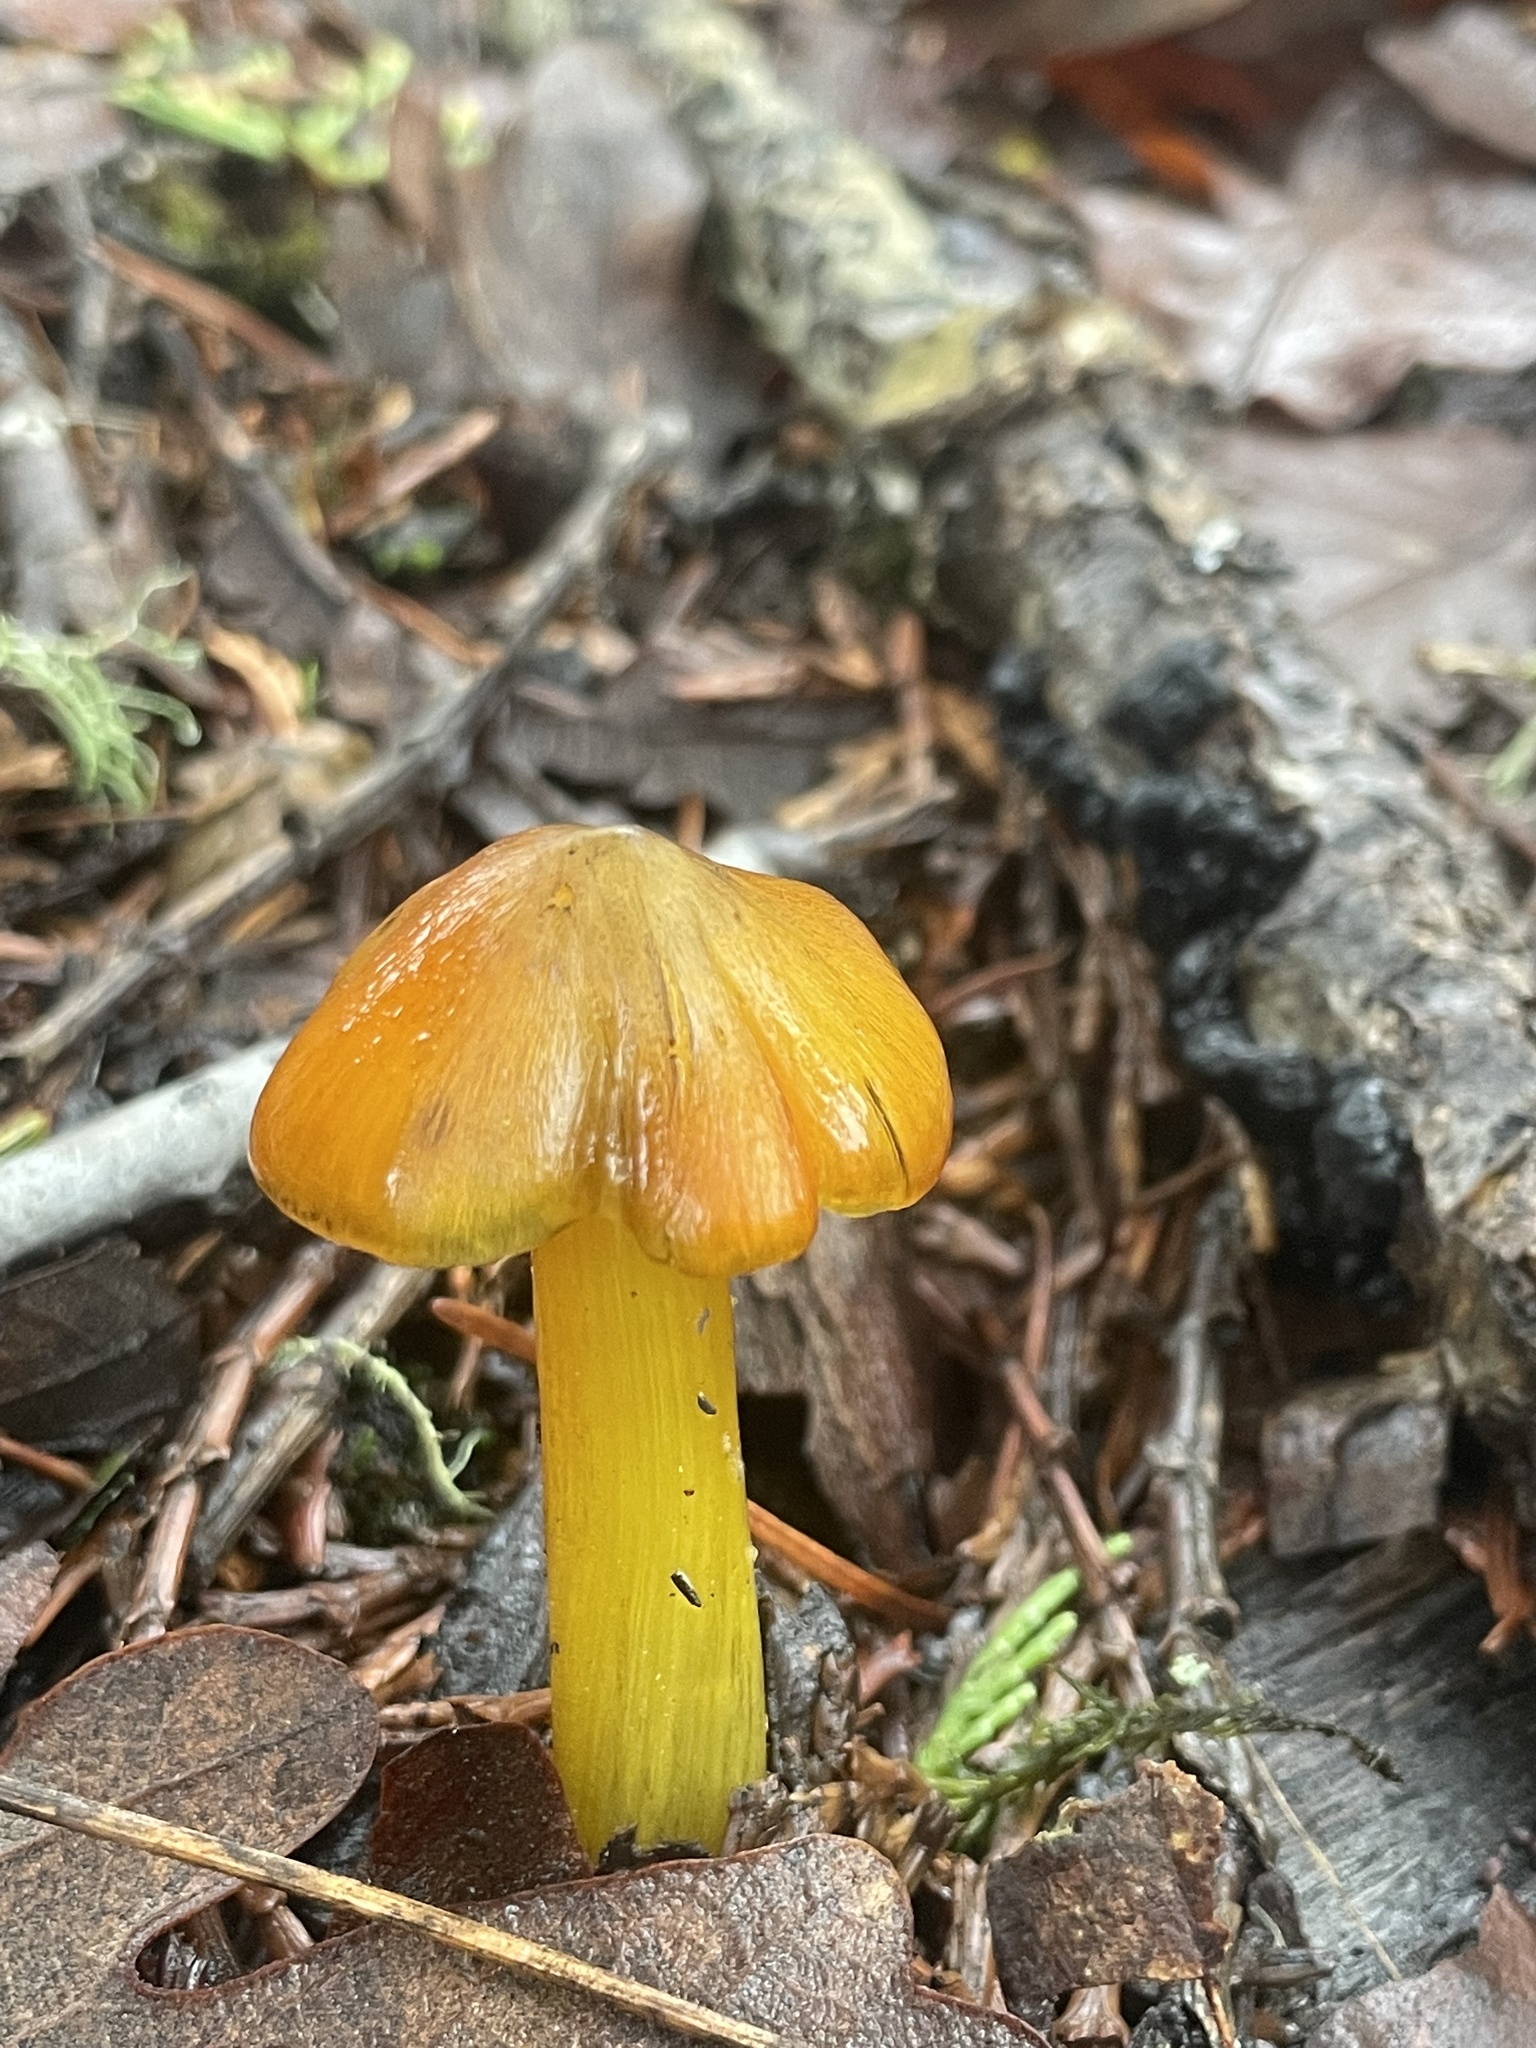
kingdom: Fungi
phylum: Basidiomycota
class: Agaricomycetes
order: Agaricales
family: Hygrophoraceae
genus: Hygrocybe
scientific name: Hygrocybe singeri
